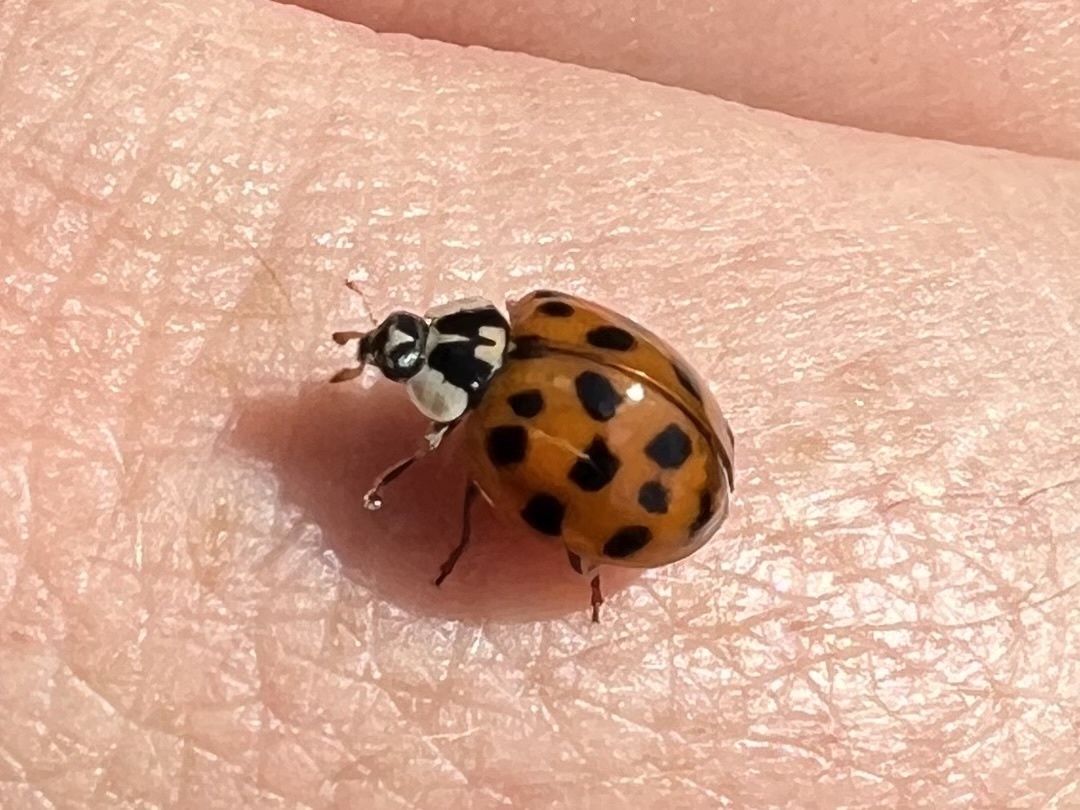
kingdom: Animalia
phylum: Arthropoda
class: Insecta
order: Coleoptera
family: Coccinellidae
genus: Harmonia
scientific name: Harmonia axyridis
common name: Harlequin ladybird
